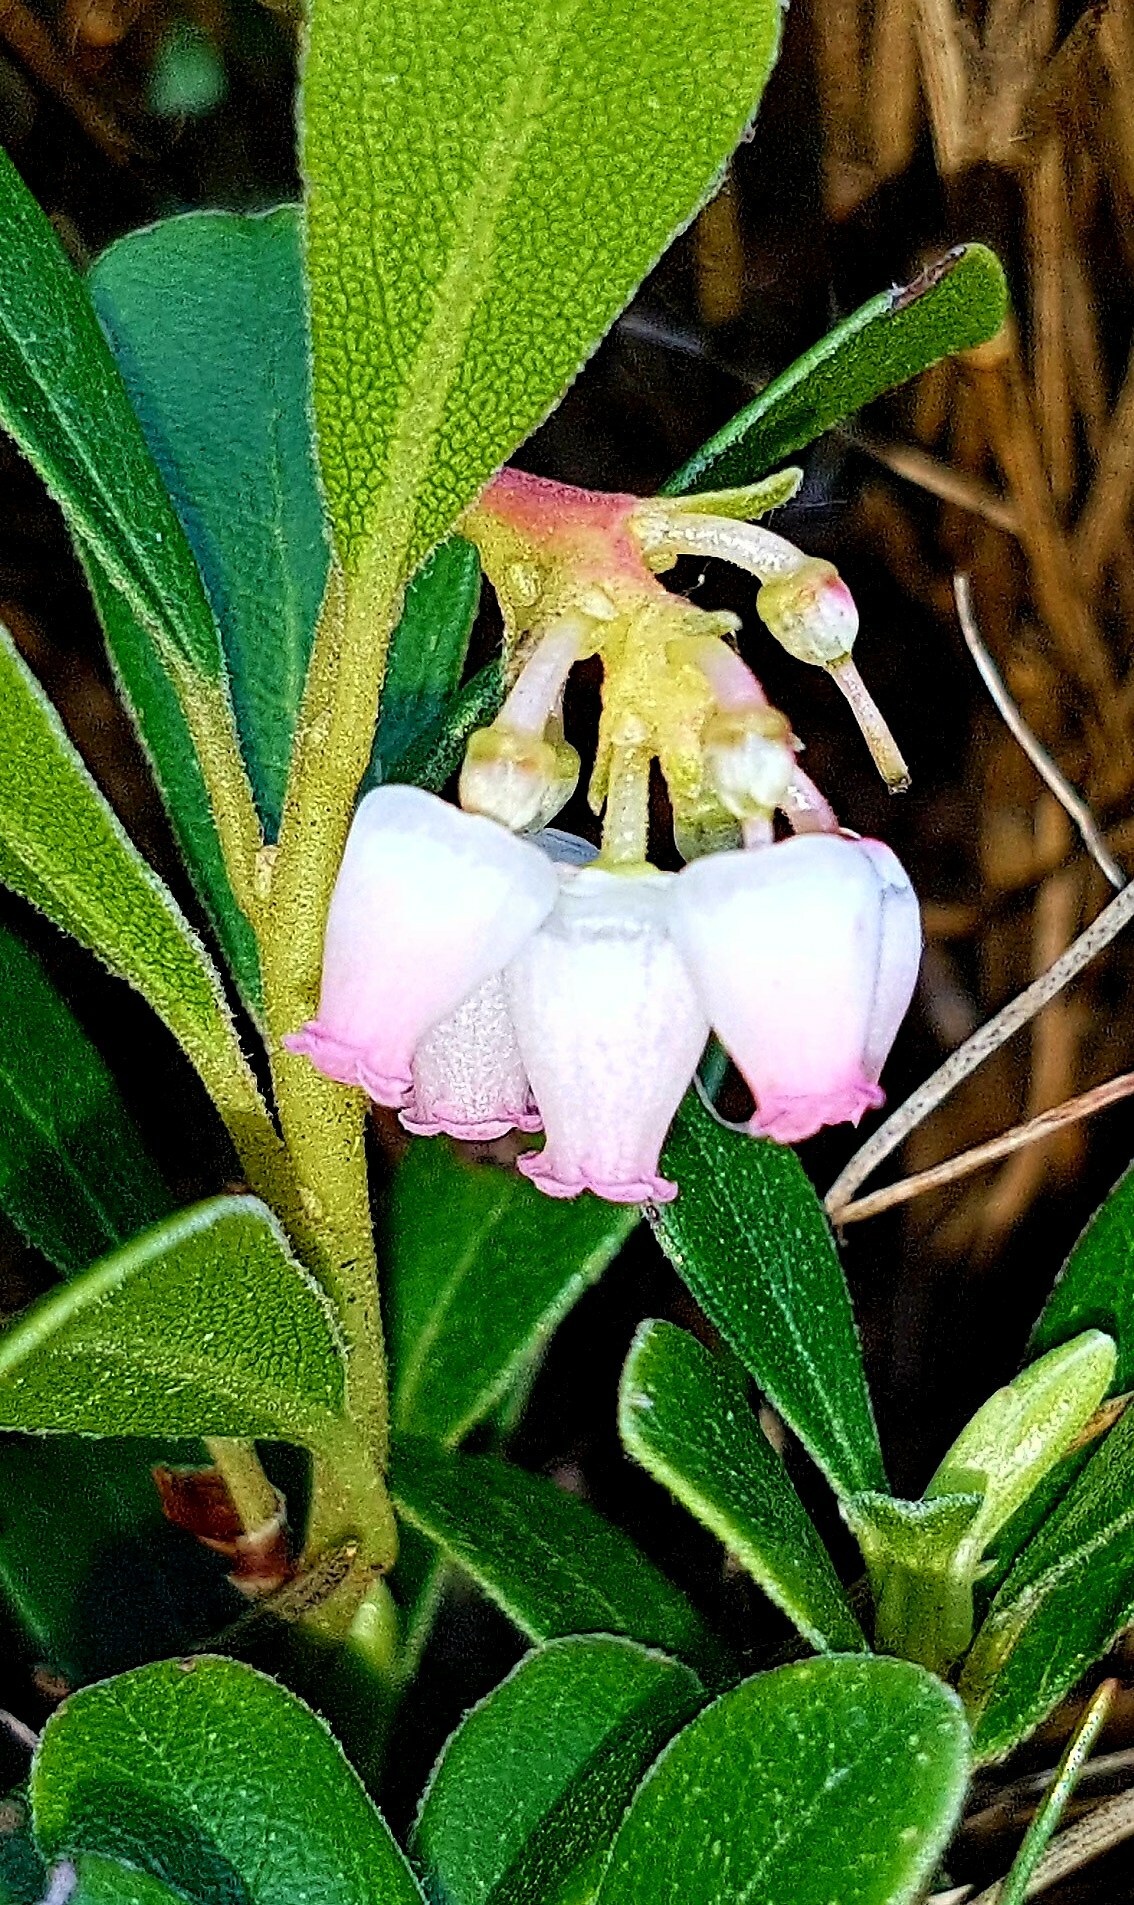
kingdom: Plantae
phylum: Tracheophyta
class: Magnoliopsida
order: Ericales
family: Ericaceae
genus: Arctostaphylos
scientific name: Arctostaphylos uva-ursi
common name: Bearberry
